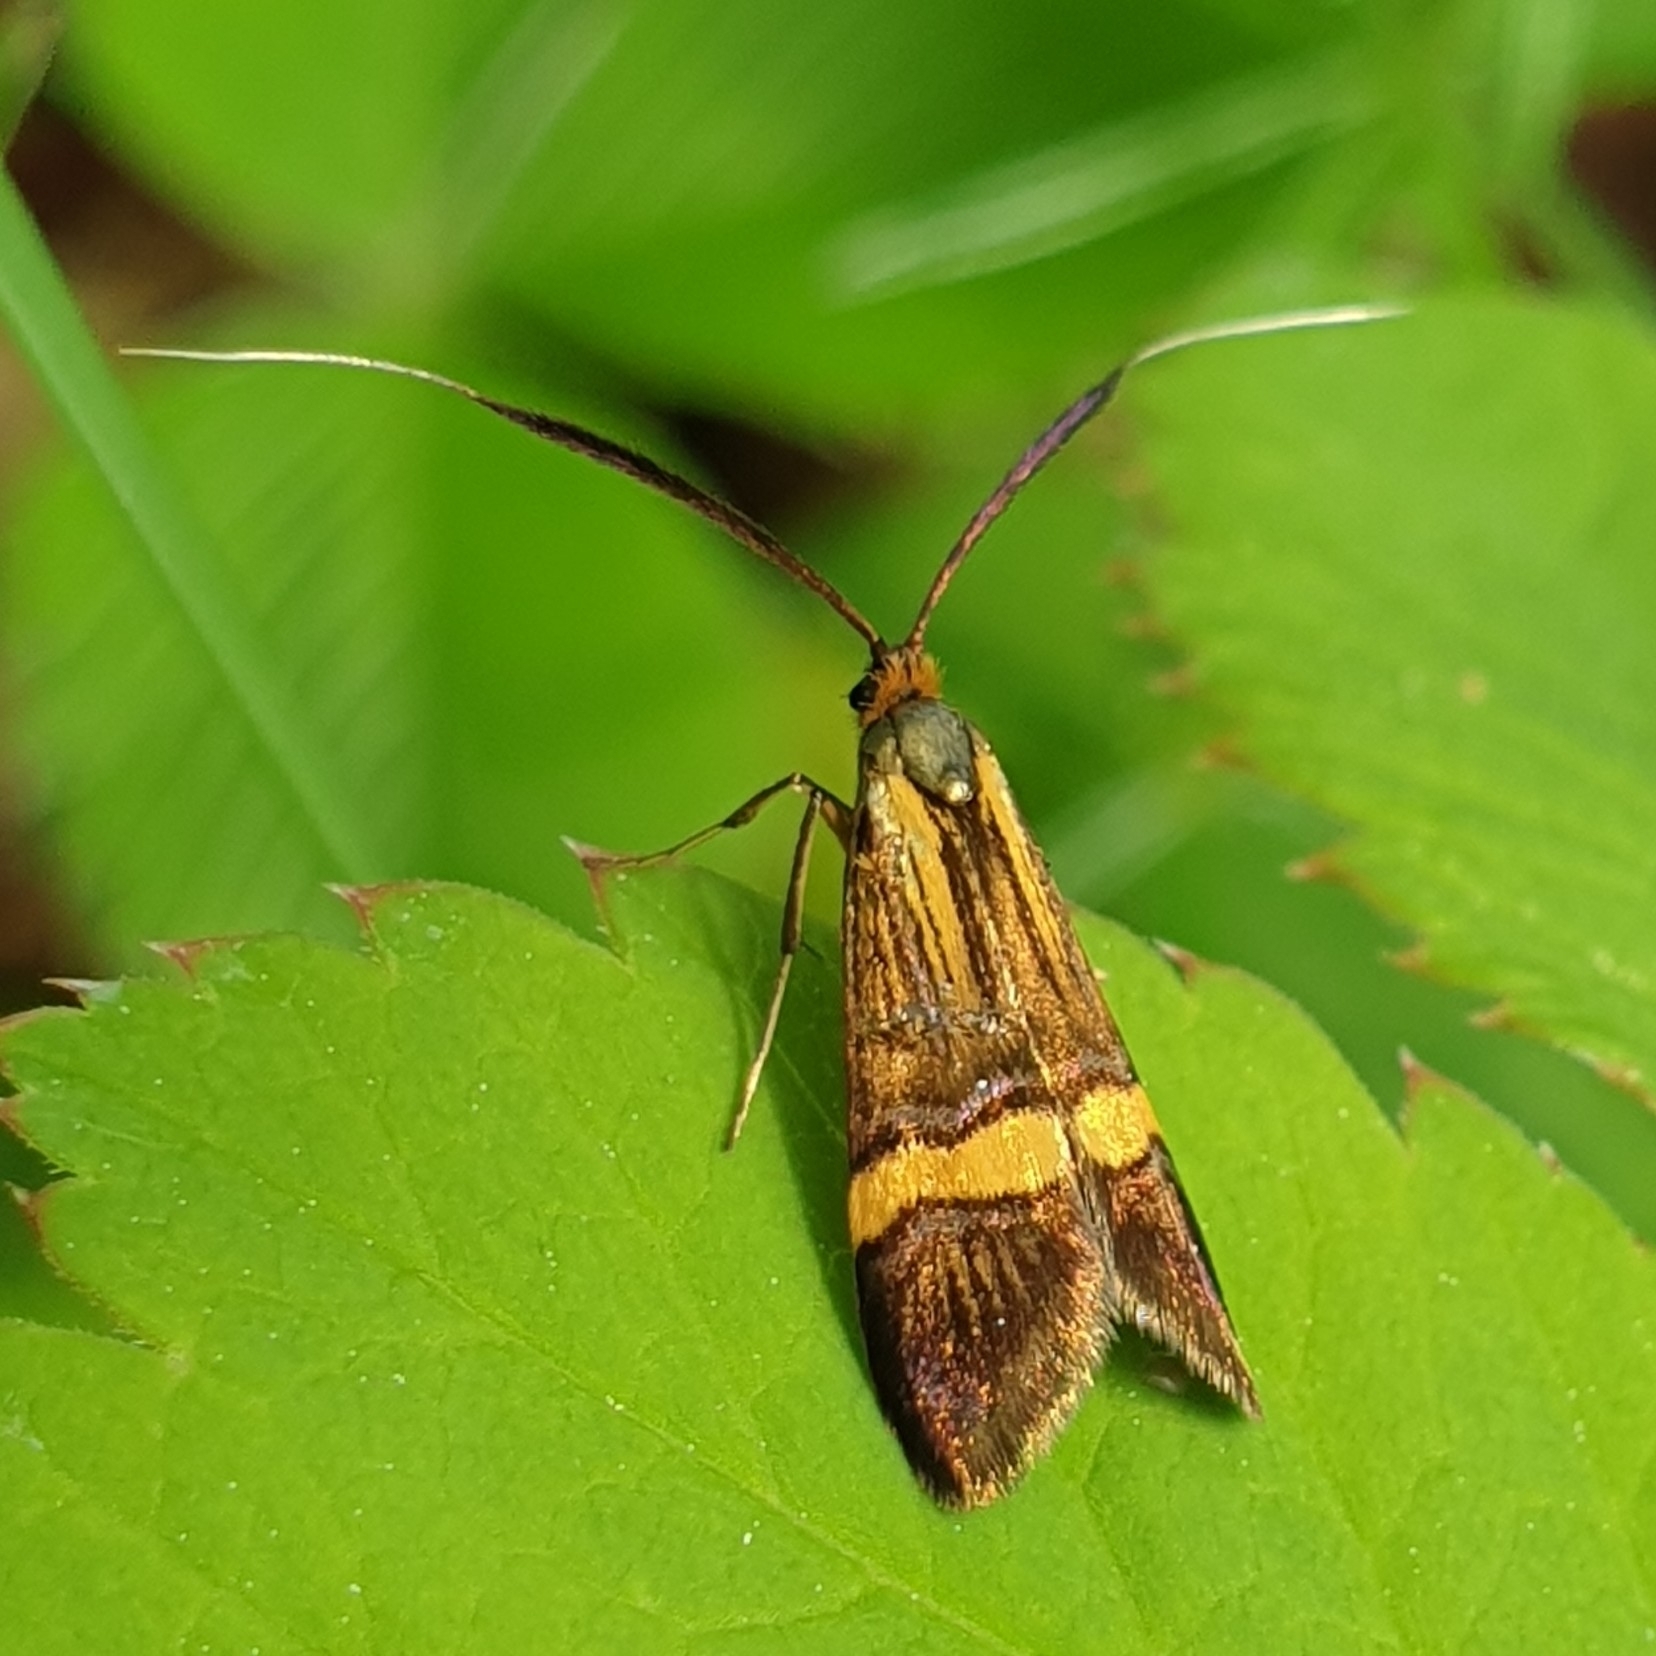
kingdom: Animalia
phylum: Arthropoda
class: Insecta
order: Lepidoptera
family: Adelidae
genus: Nemophora
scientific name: Nemophora degeerella
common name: Yellow-barred long-horn
